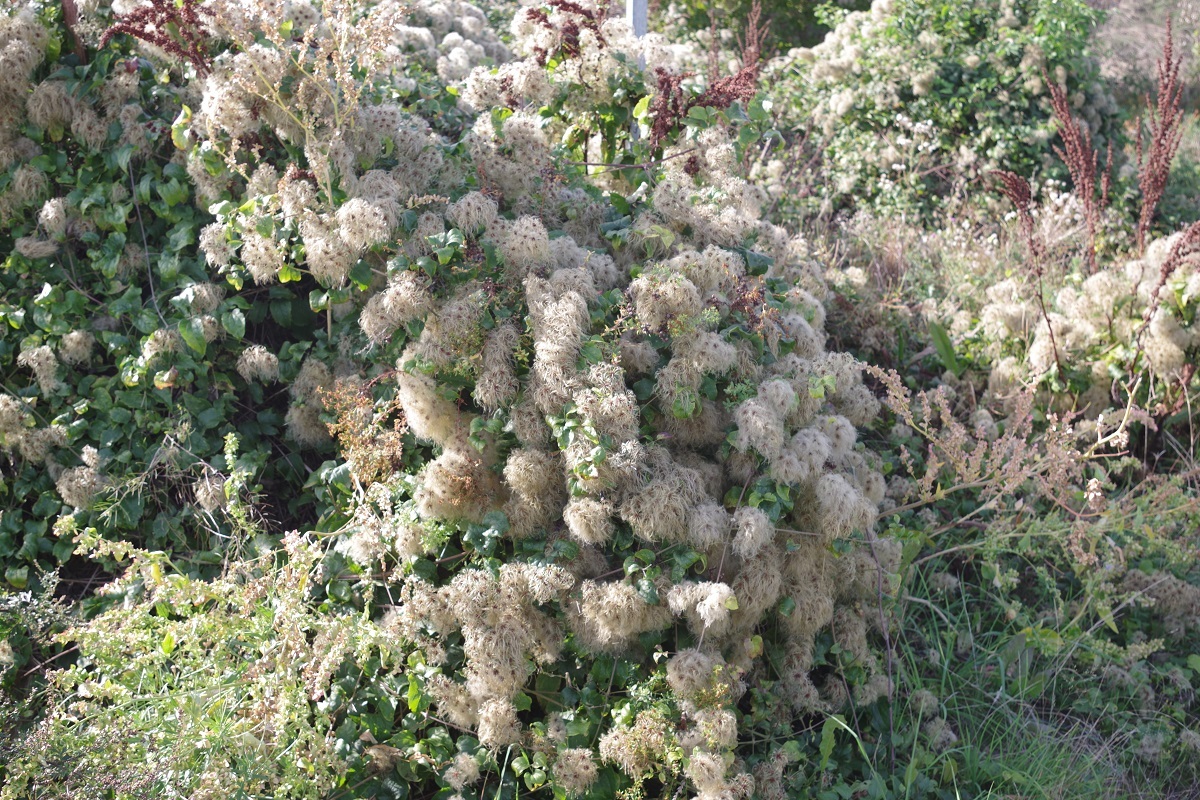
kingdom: Plantae
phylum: Tracheophyta
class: Magnoliopsida
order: Ranunculales
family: Ranunculaceae
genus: Clematis
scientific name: Clematis vitalba
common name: Evergreen clematis
